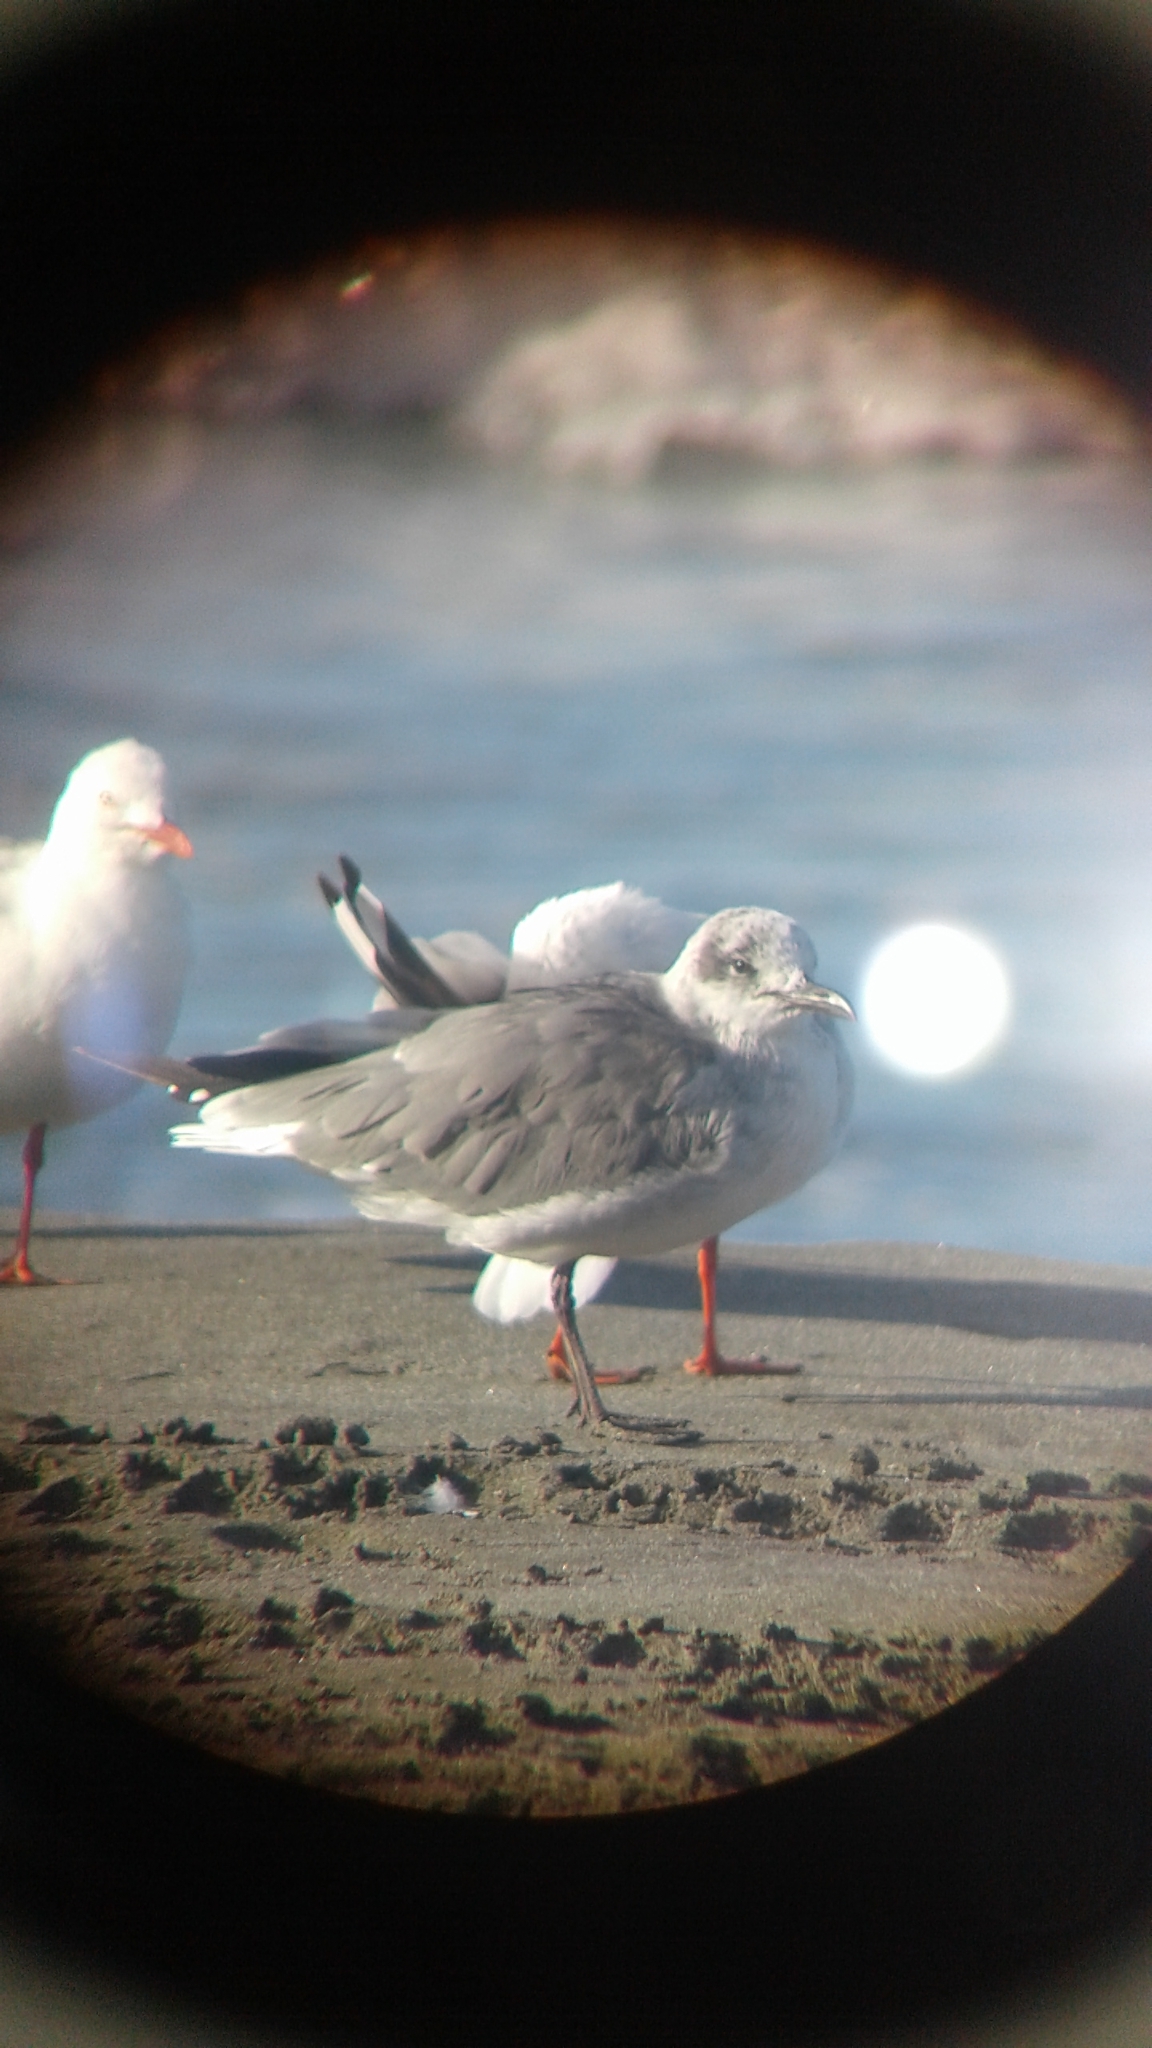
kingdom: Animalia
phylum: Chordata
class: Aves
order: Charadriiformes
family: Laridae
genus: Leucophaeus
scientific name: Leucophaeus atricilla
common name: Laughing gull
